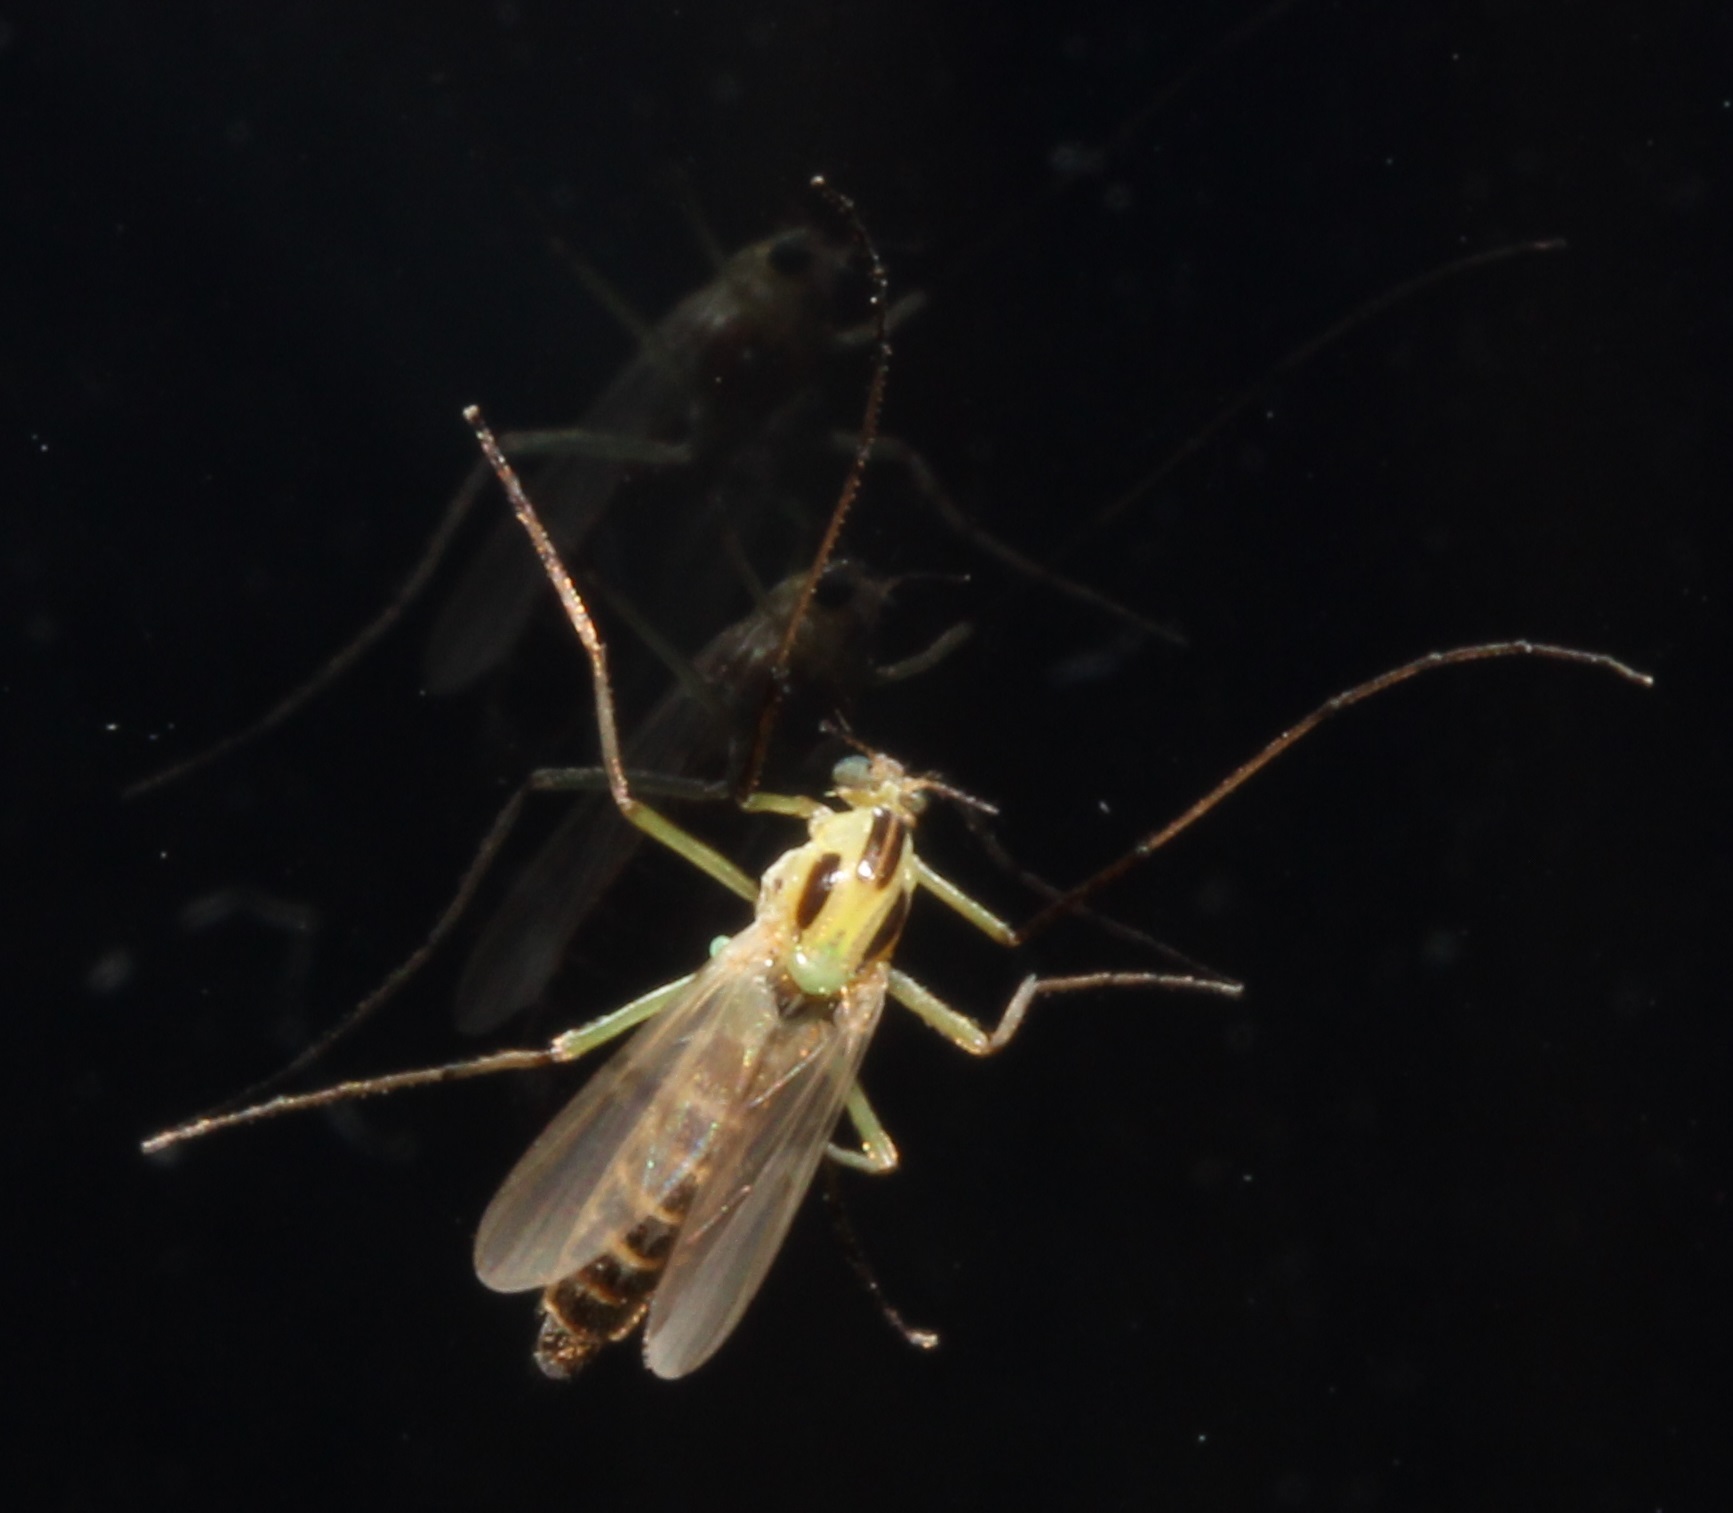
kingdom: Animalia
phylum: Arthropoda
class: Insecta
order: Diptera
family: Chironomidae
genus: Chironomus
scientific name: Chironomus atroviridis
